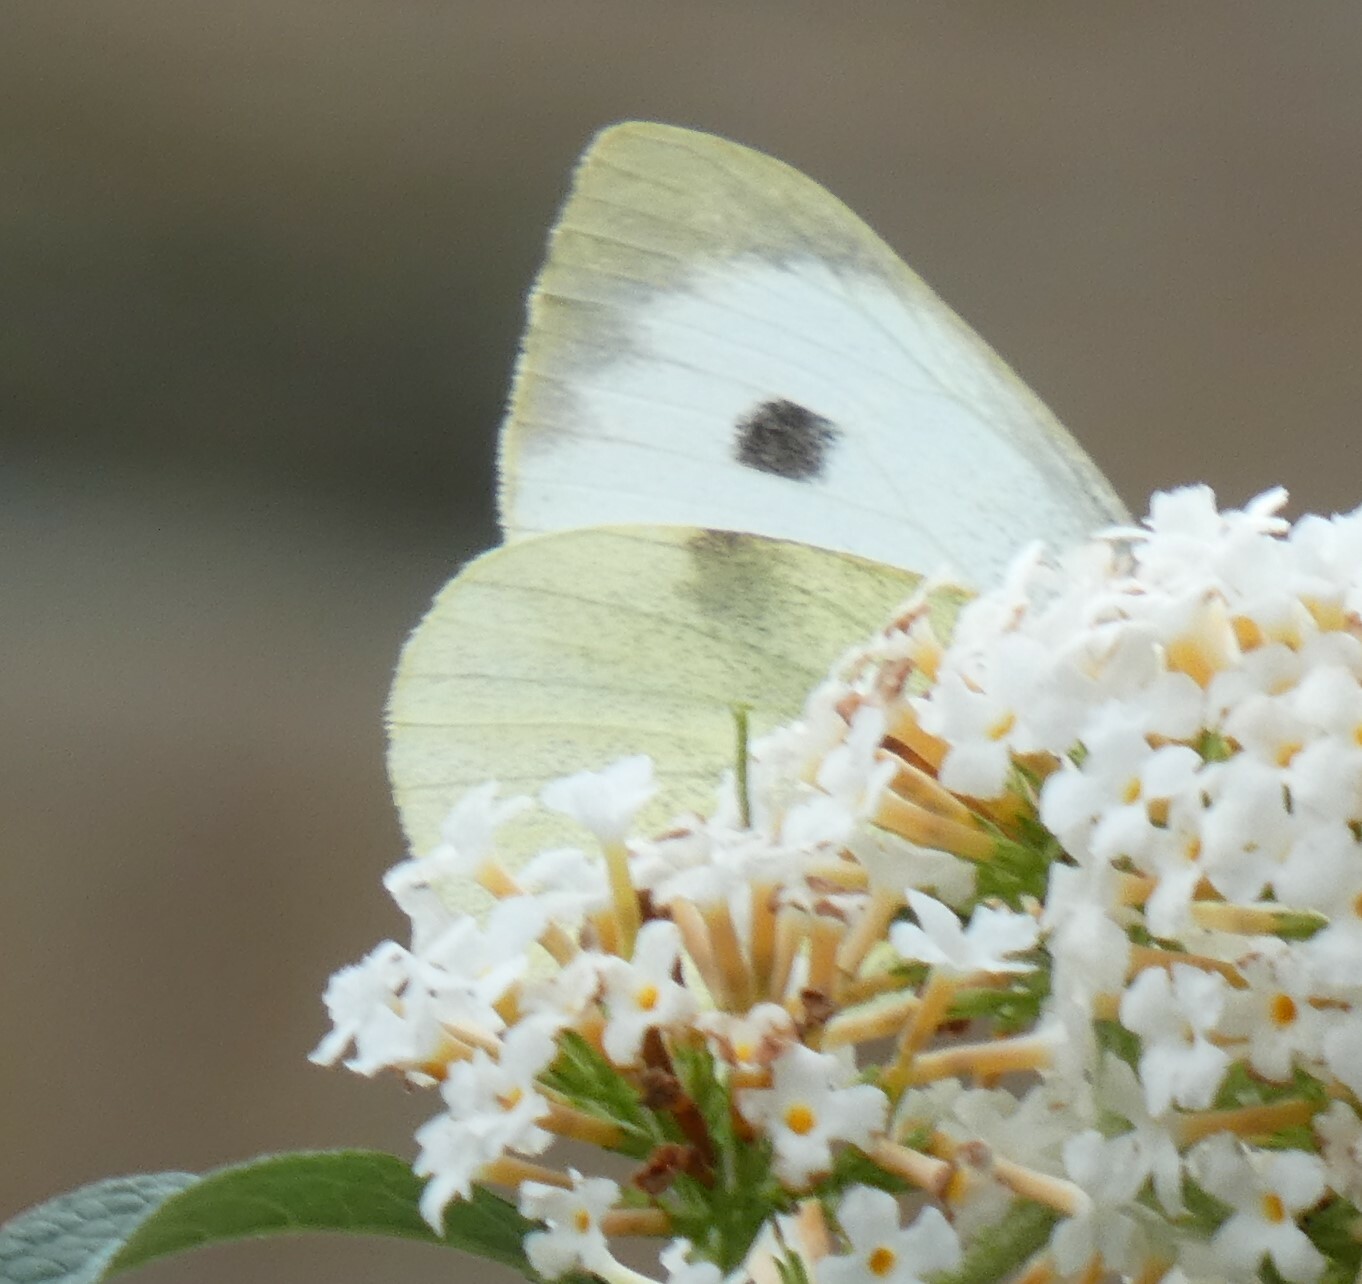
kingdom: Animalia
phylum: Arthropoda
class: Insecta
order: Lepidoptera
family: Pieridae
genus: Pieris
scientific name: Pieris brassicae
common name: Large white
